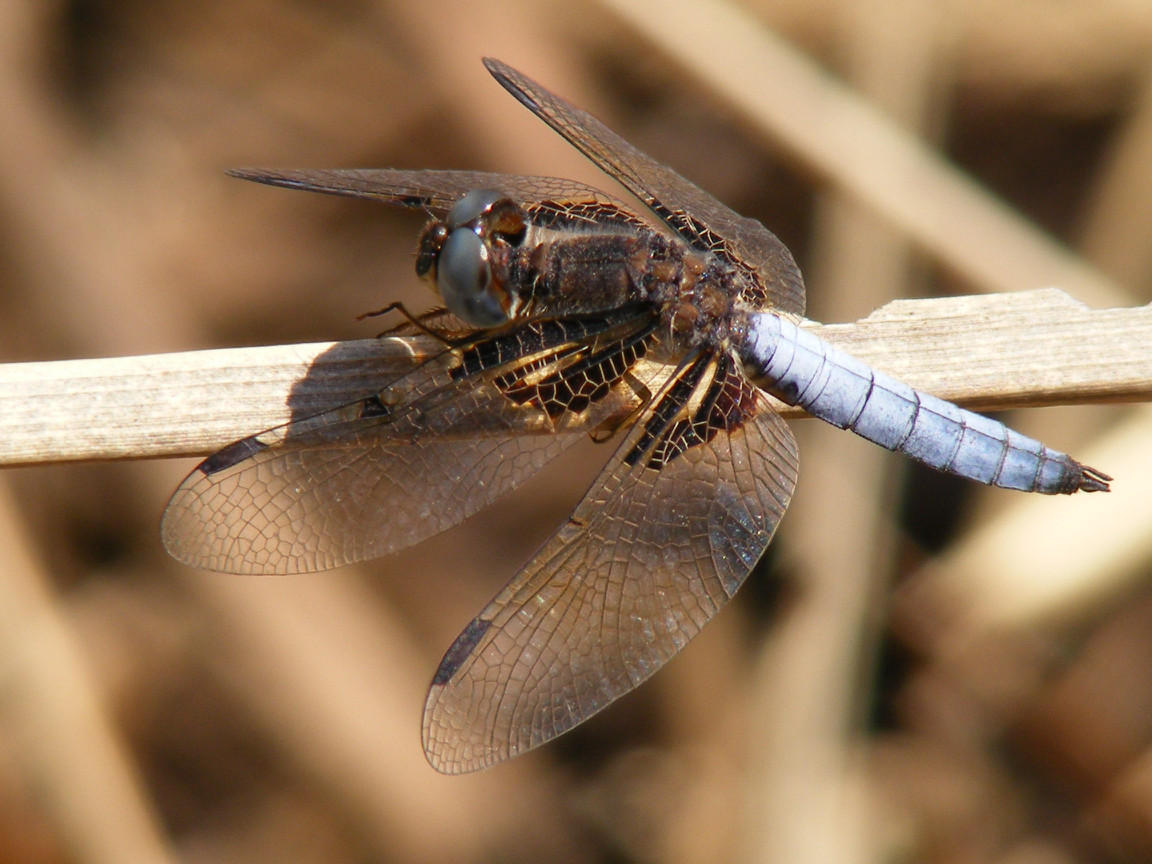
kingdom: Animalia
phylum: Arthropoda
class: Insecta
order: Odonata
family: Libellulidae
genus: Palpopleura
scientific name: Palpopleura jucunda
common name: Yellow-veined widow
